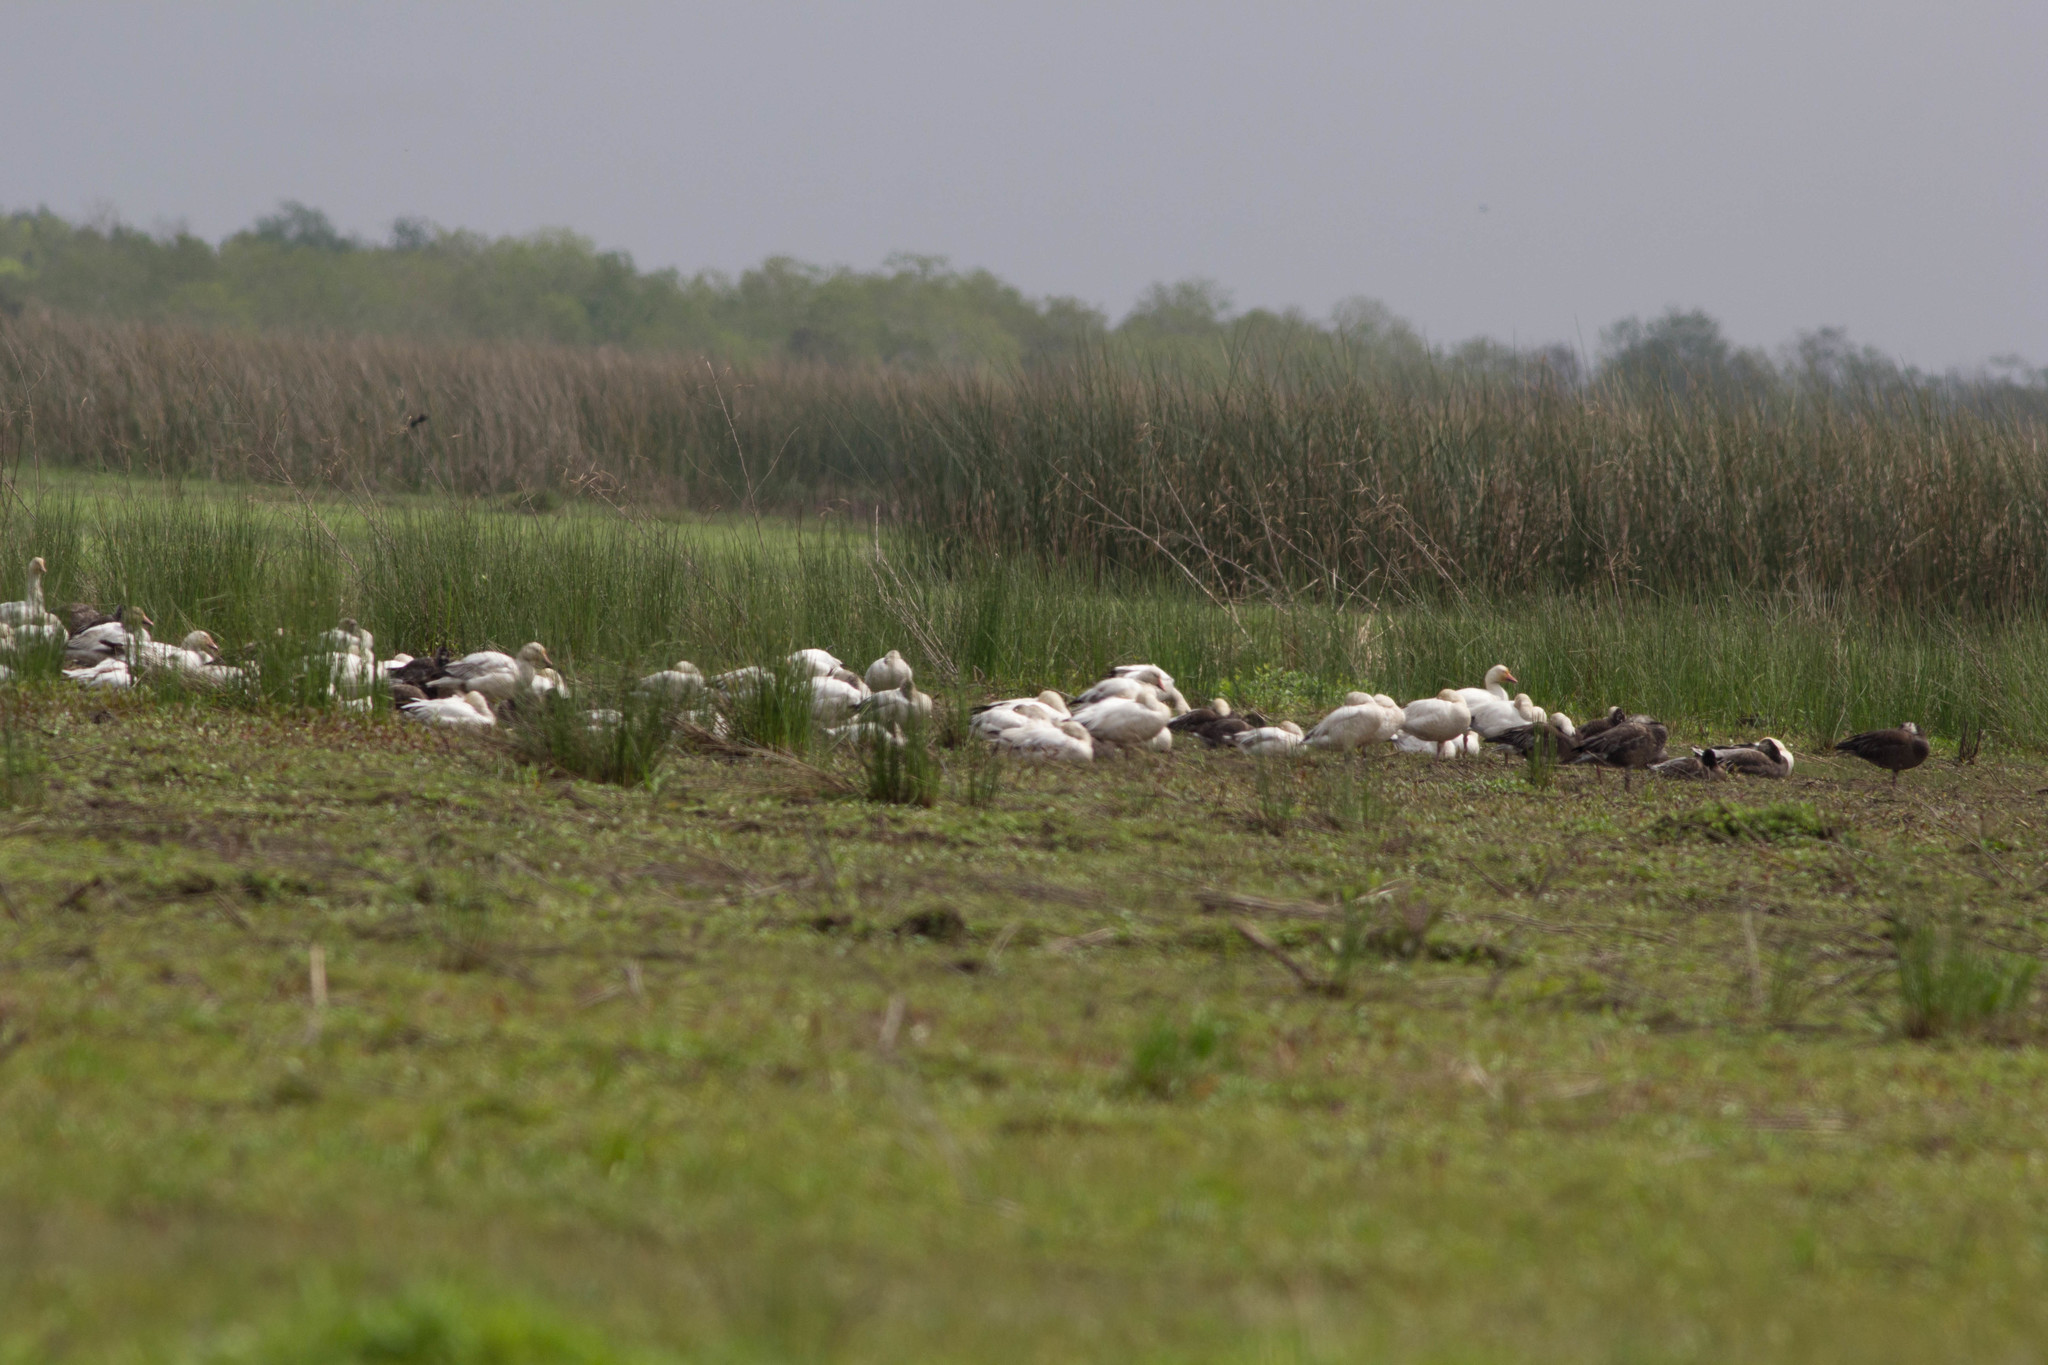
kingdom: Animalia
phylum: Chordata
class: Aves
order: Anseriformes
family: Anatidae
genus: Anser
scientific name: Anser caerulescens
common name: Snow goose
